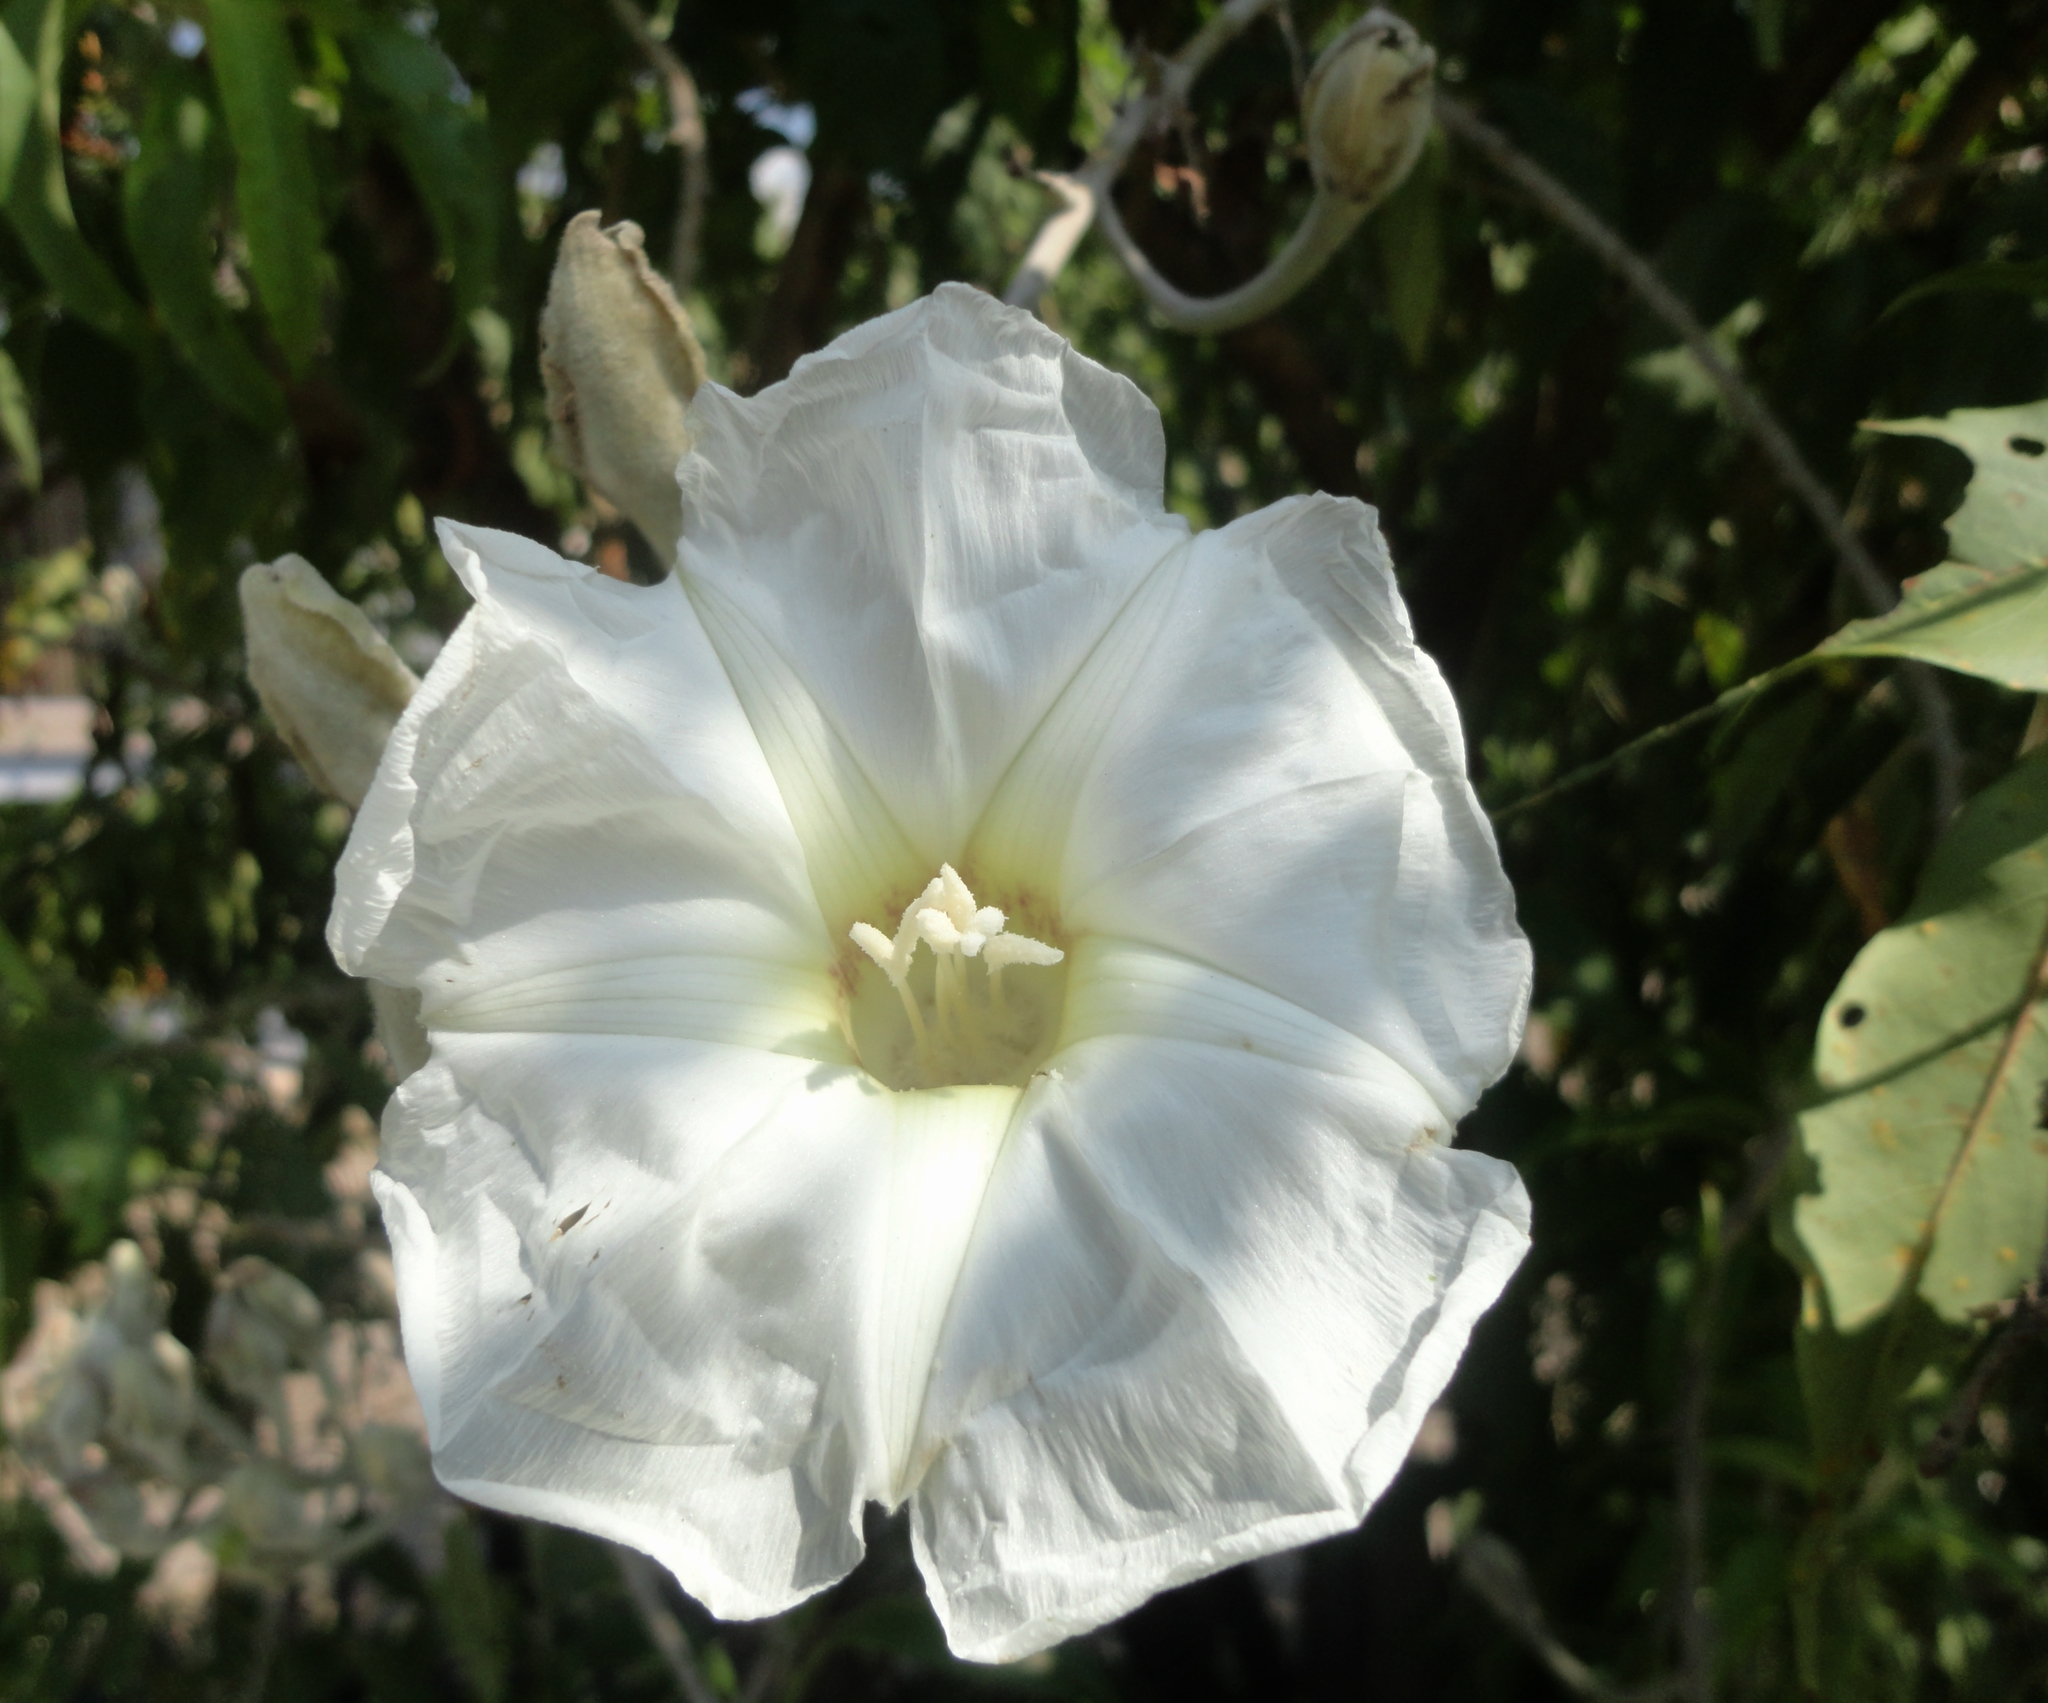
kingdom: Plantae
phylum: Tracheophyta
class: Magnoliopsida
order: Solanales
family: Convolvulaceae
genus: Ipomoea
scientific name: Ipomoea murucoides
